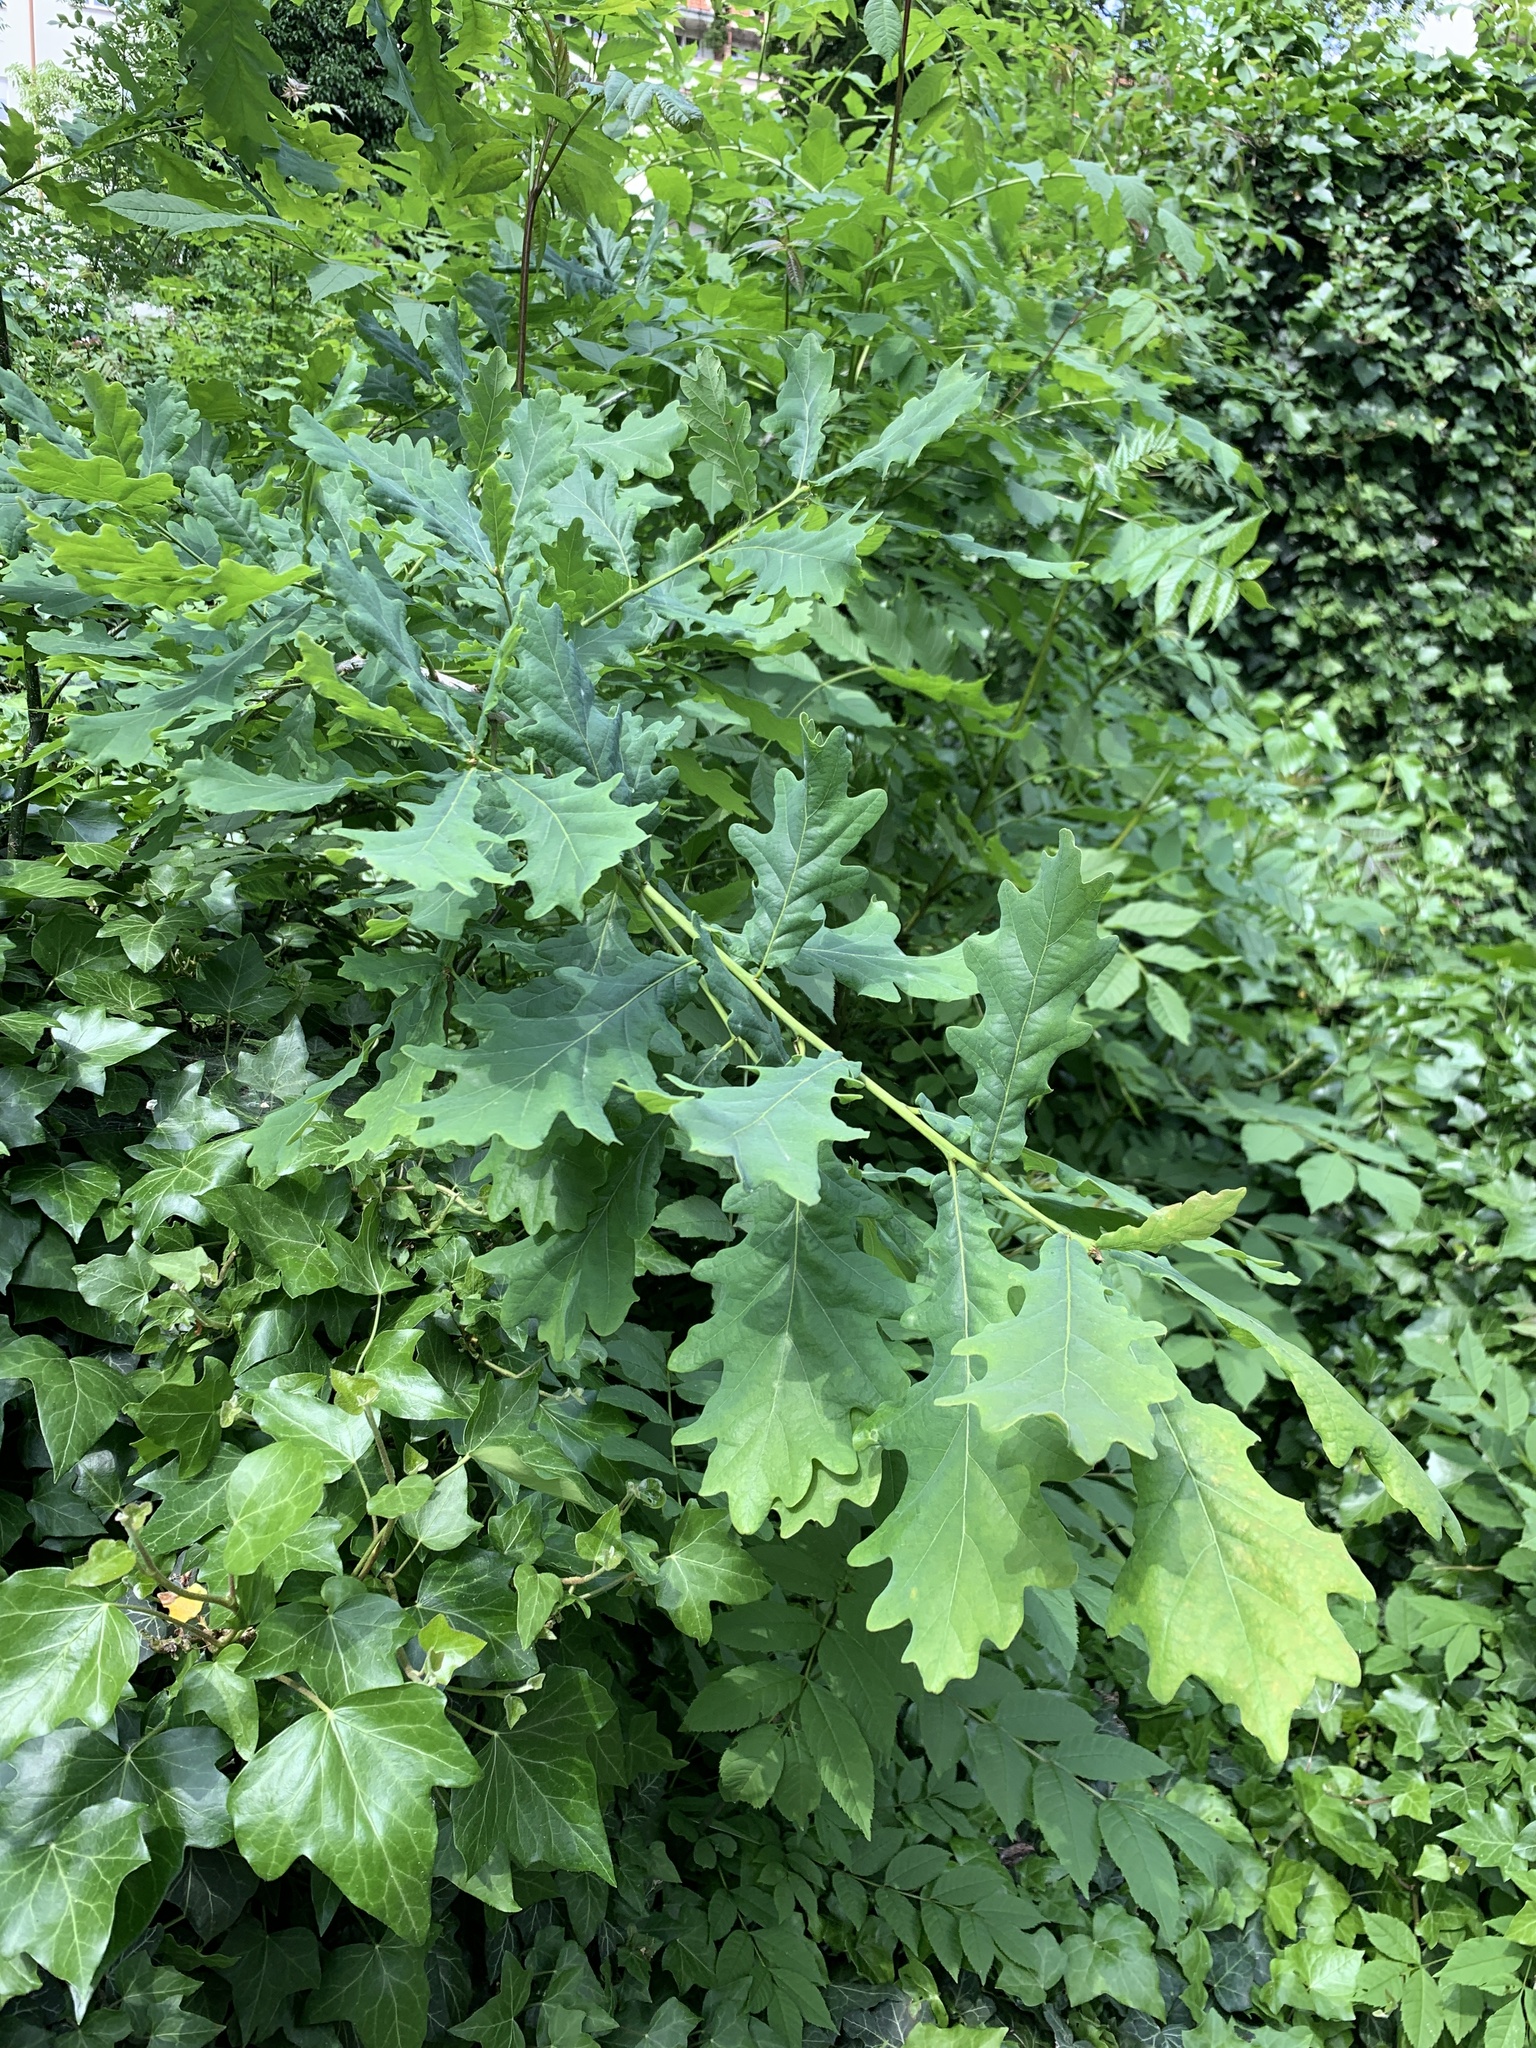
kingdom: Plantae
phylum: Tracheophyta
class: Magnoliopsida
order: Fagales
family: Fagaceae
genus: Quercus
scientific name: Quercus robur
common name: Pedunculate oak
